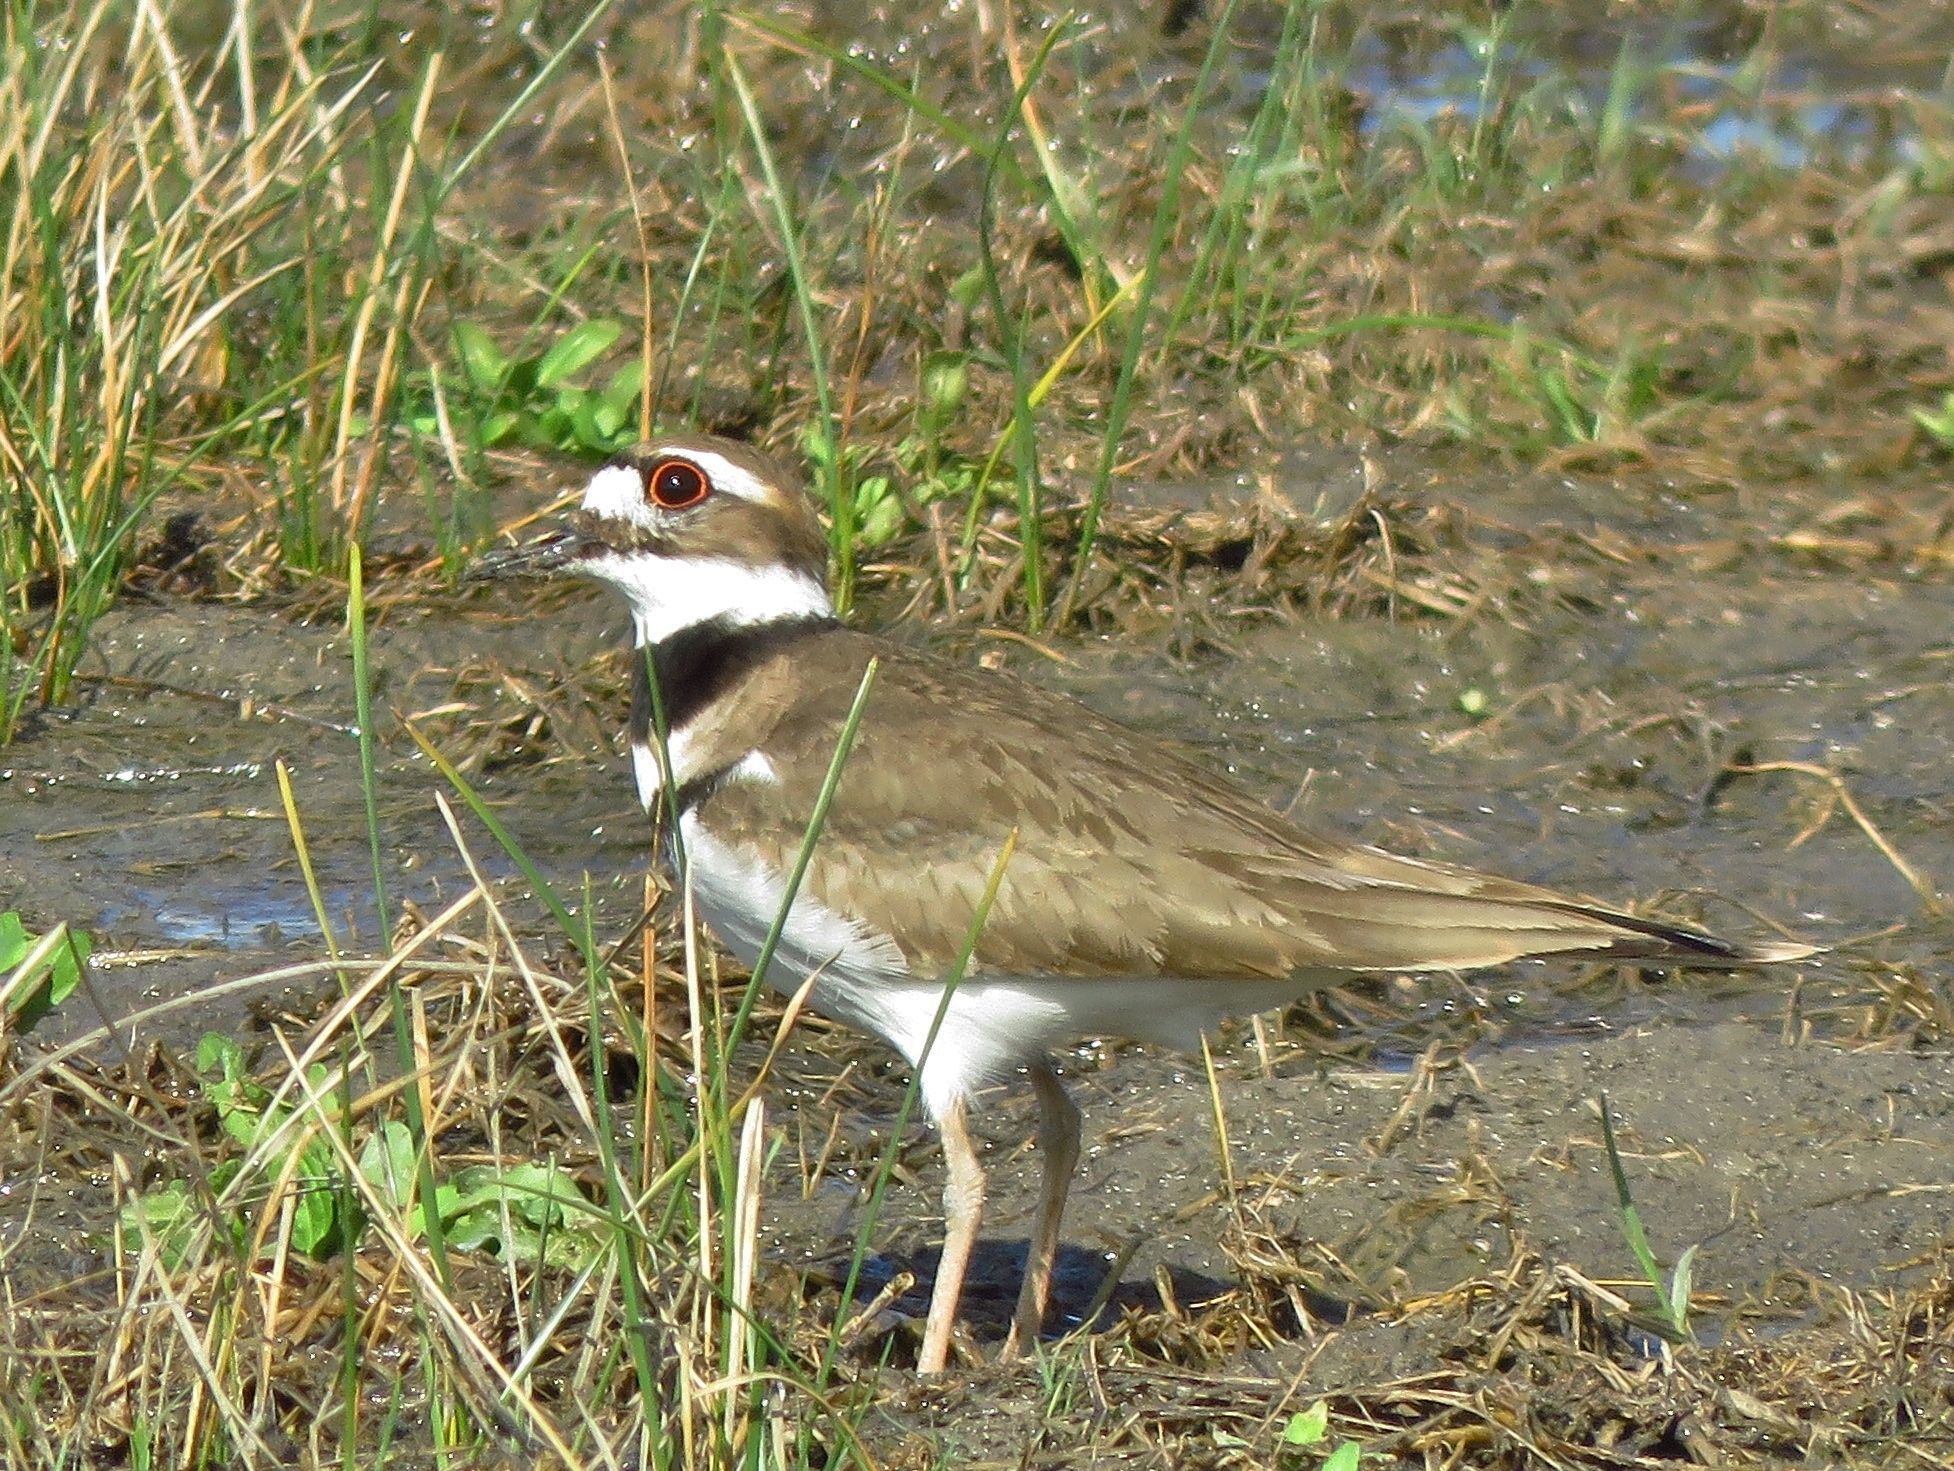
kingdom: Animalia
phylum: Chordata
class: Aves
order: Charadriiformes
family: Charadriidae
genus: Charadrius
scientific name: Charadrius vociferus
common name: Killdeer
